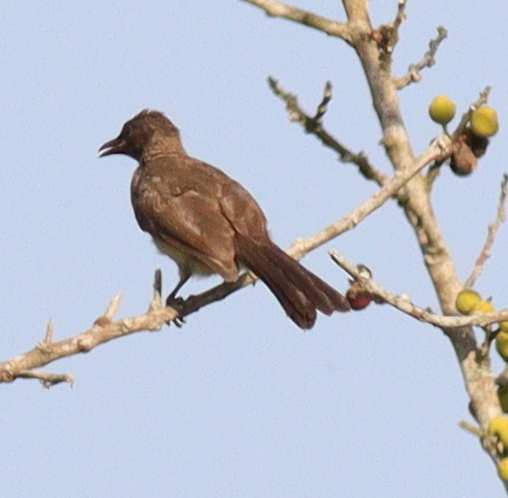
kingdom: Animalia
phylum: Chordata
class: Aves
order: Passeriformes
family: Pycnonotidae
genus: Pycnonotus
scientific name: Pycnonotus barbatus
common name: Common bulbul
